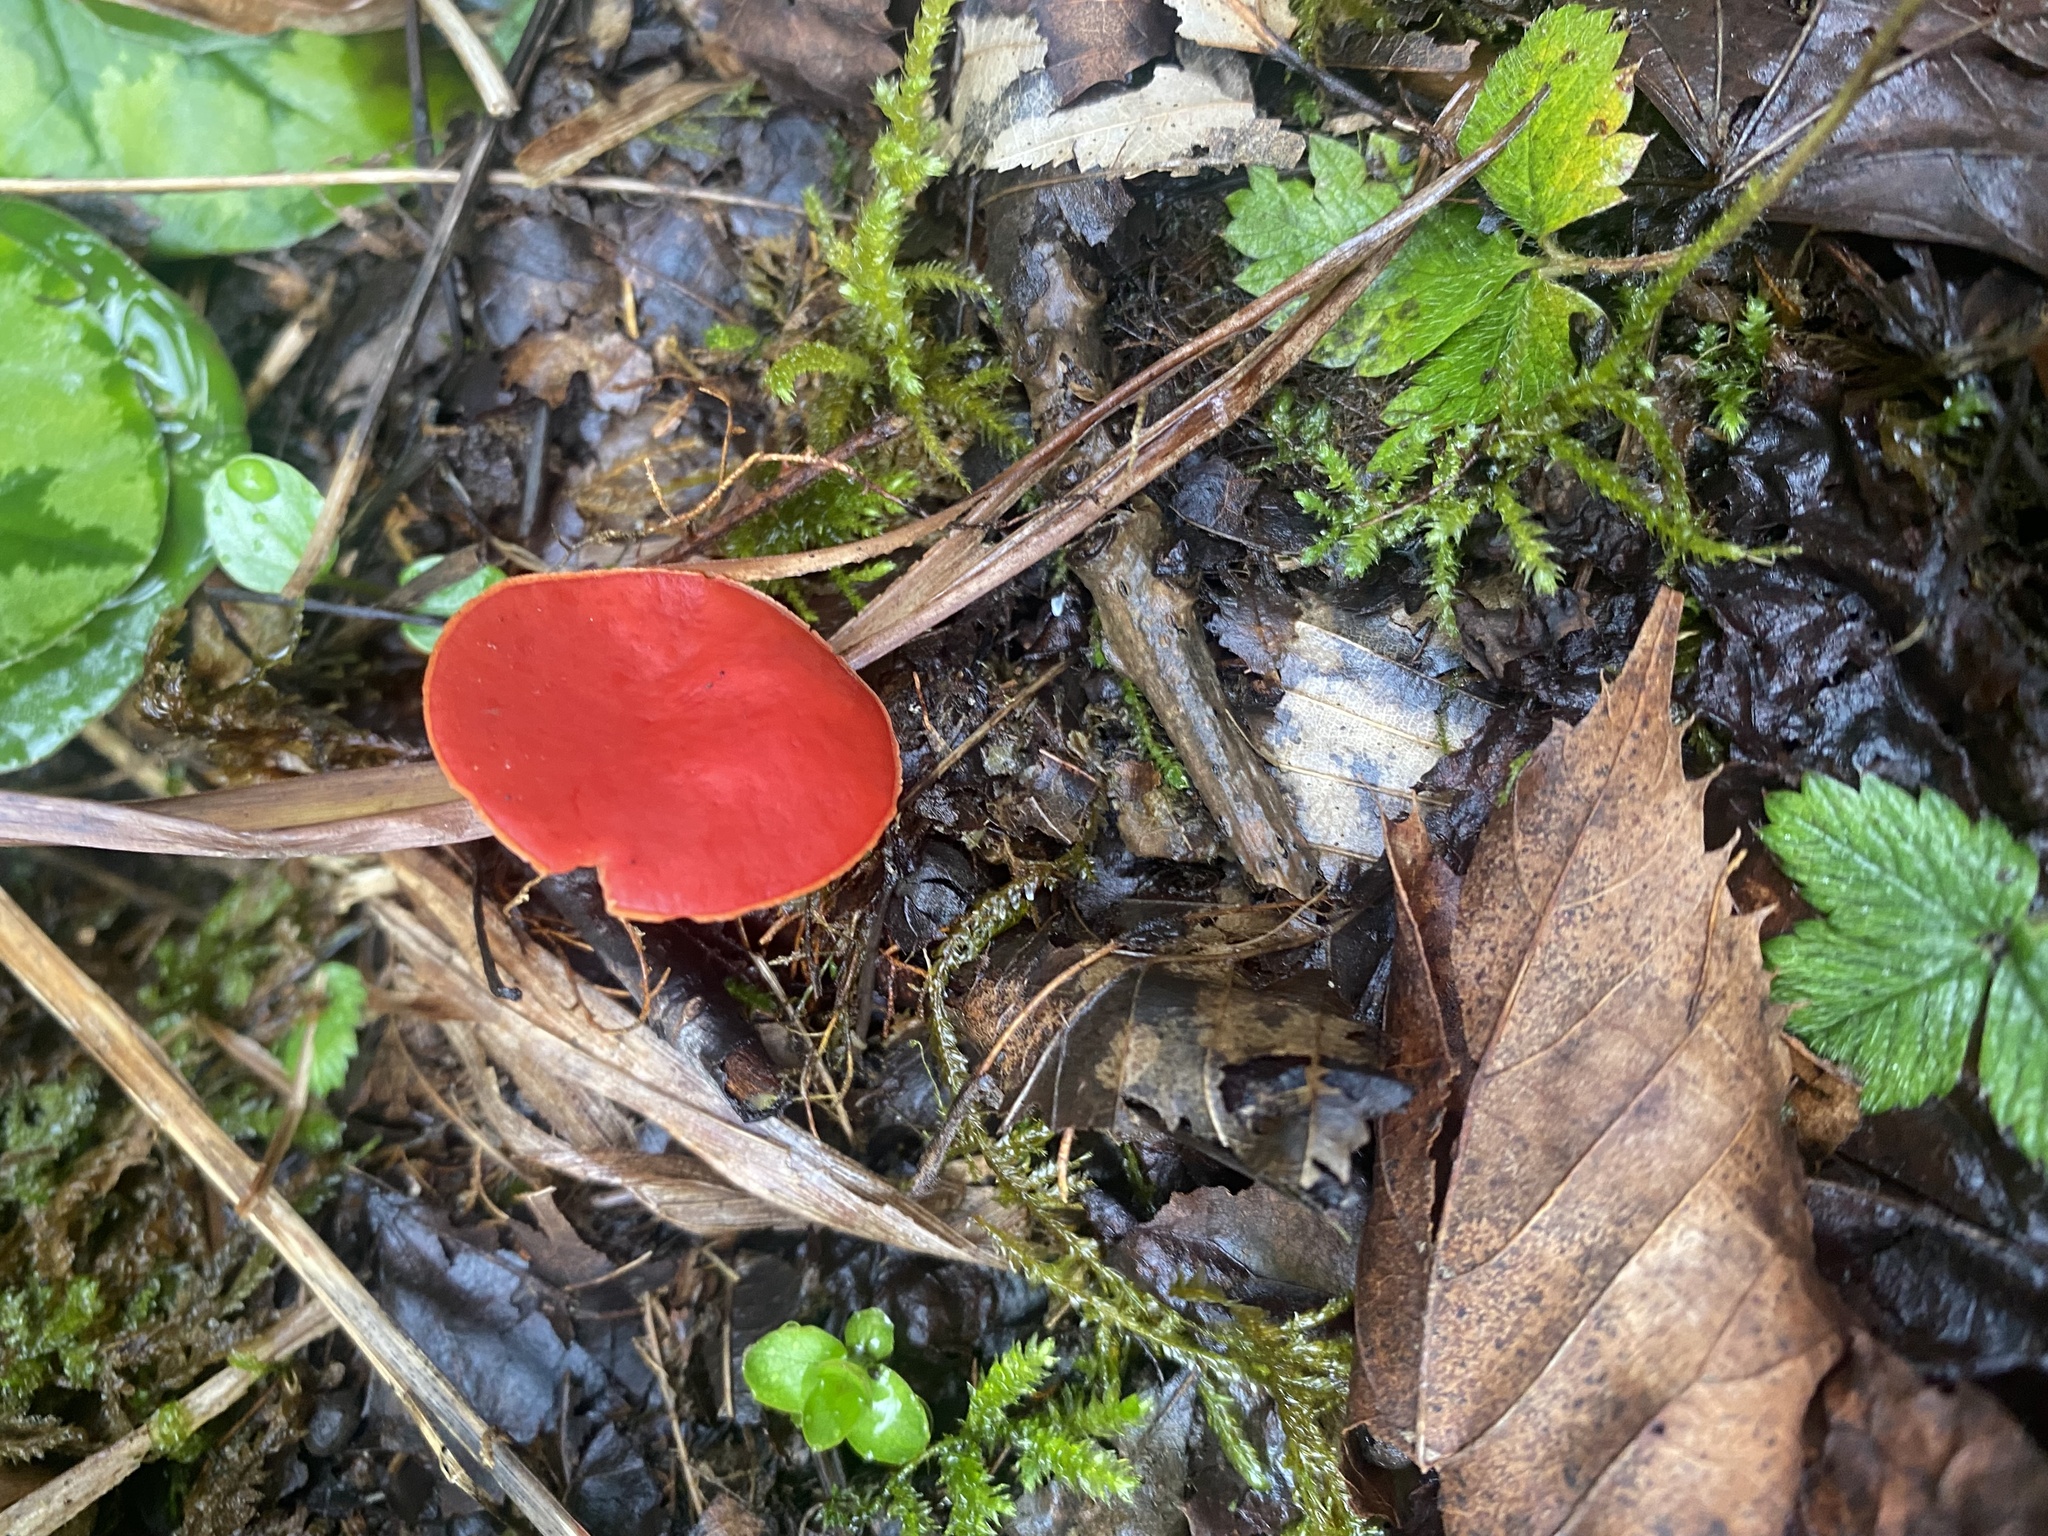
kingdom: Fungi
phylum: Ascomycota
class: Pezizomycetes
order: Pezizales
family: Sarcoscyphaceae
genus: Sarcoscypha
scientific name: Sarcoscypha
